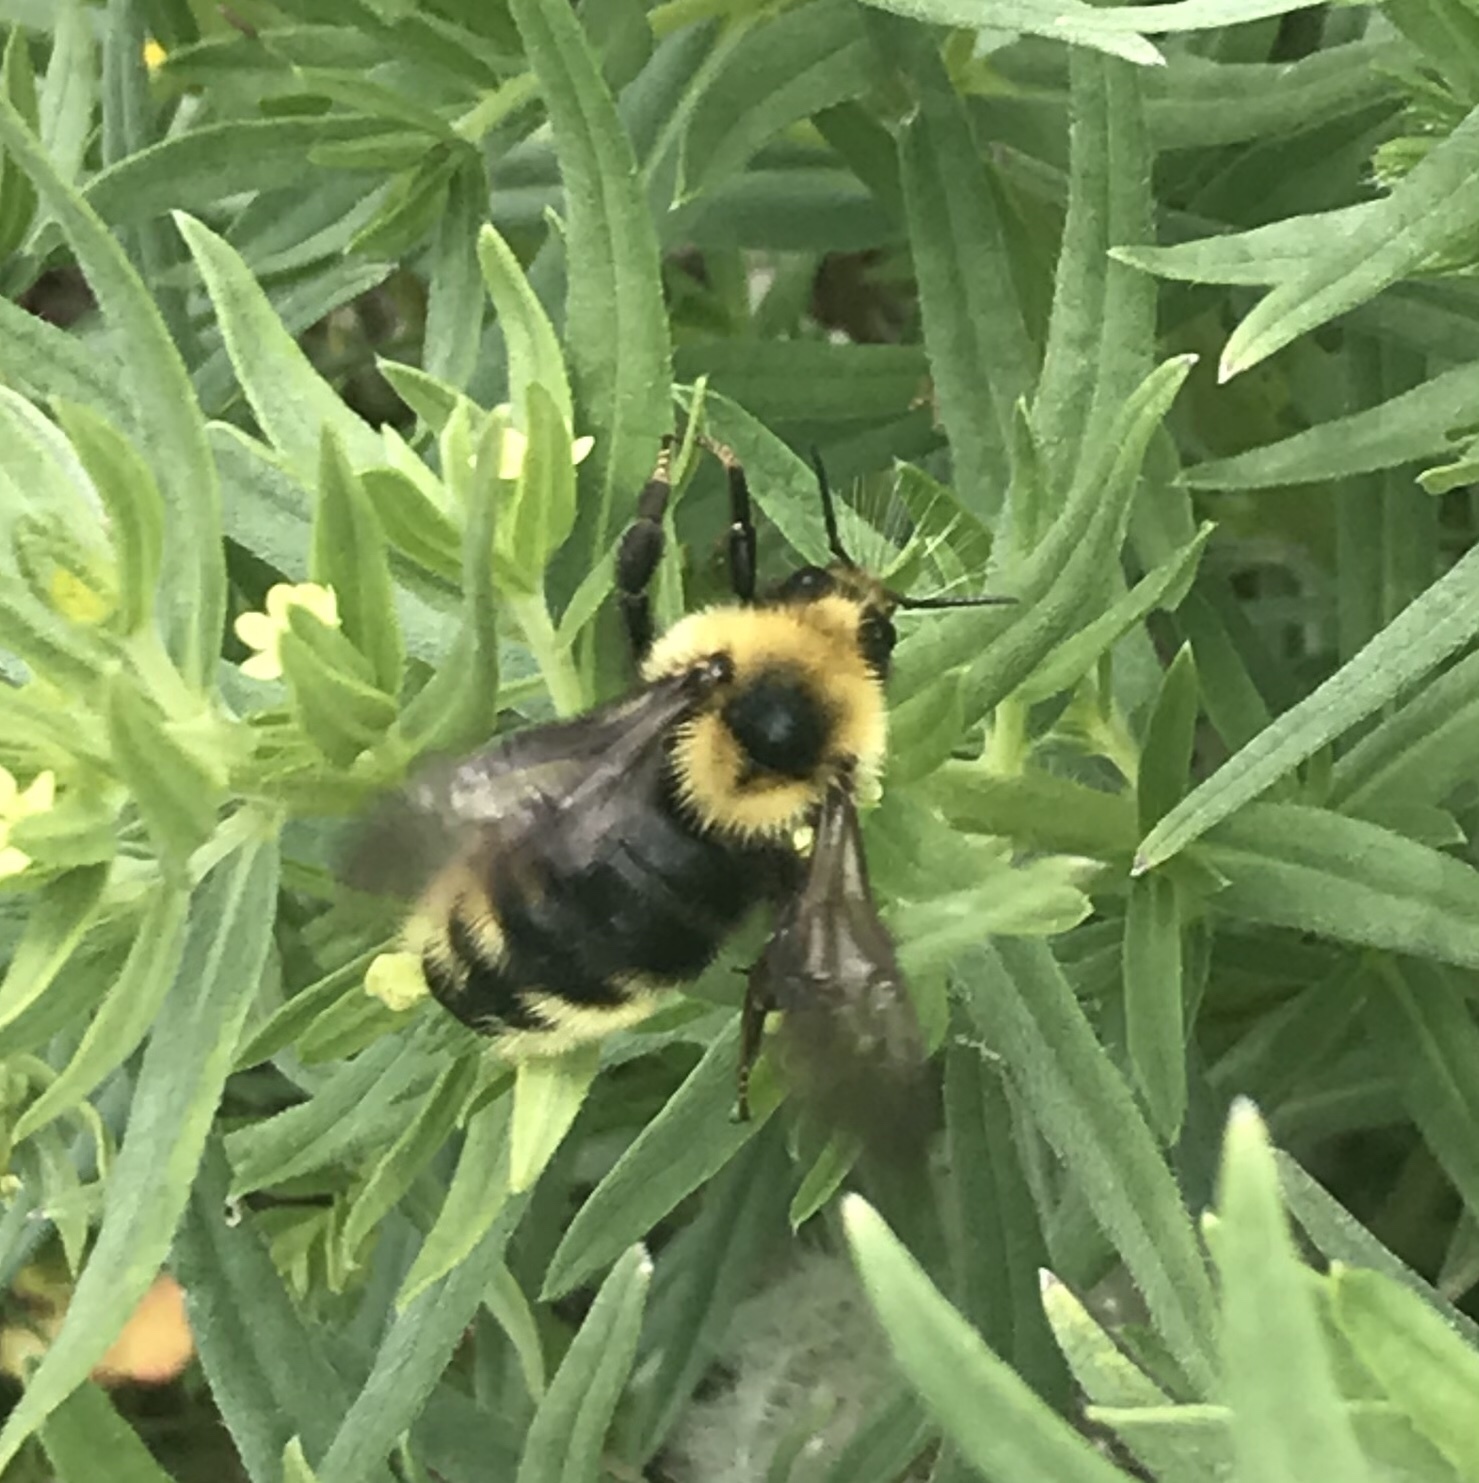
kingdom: Animalia
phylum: Arthropoda
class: Insecta
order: Hymenoptera
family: Apidae
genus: Bombus
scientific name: Bombus insularis
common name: Indiscriminate cuckoo bumble bee
